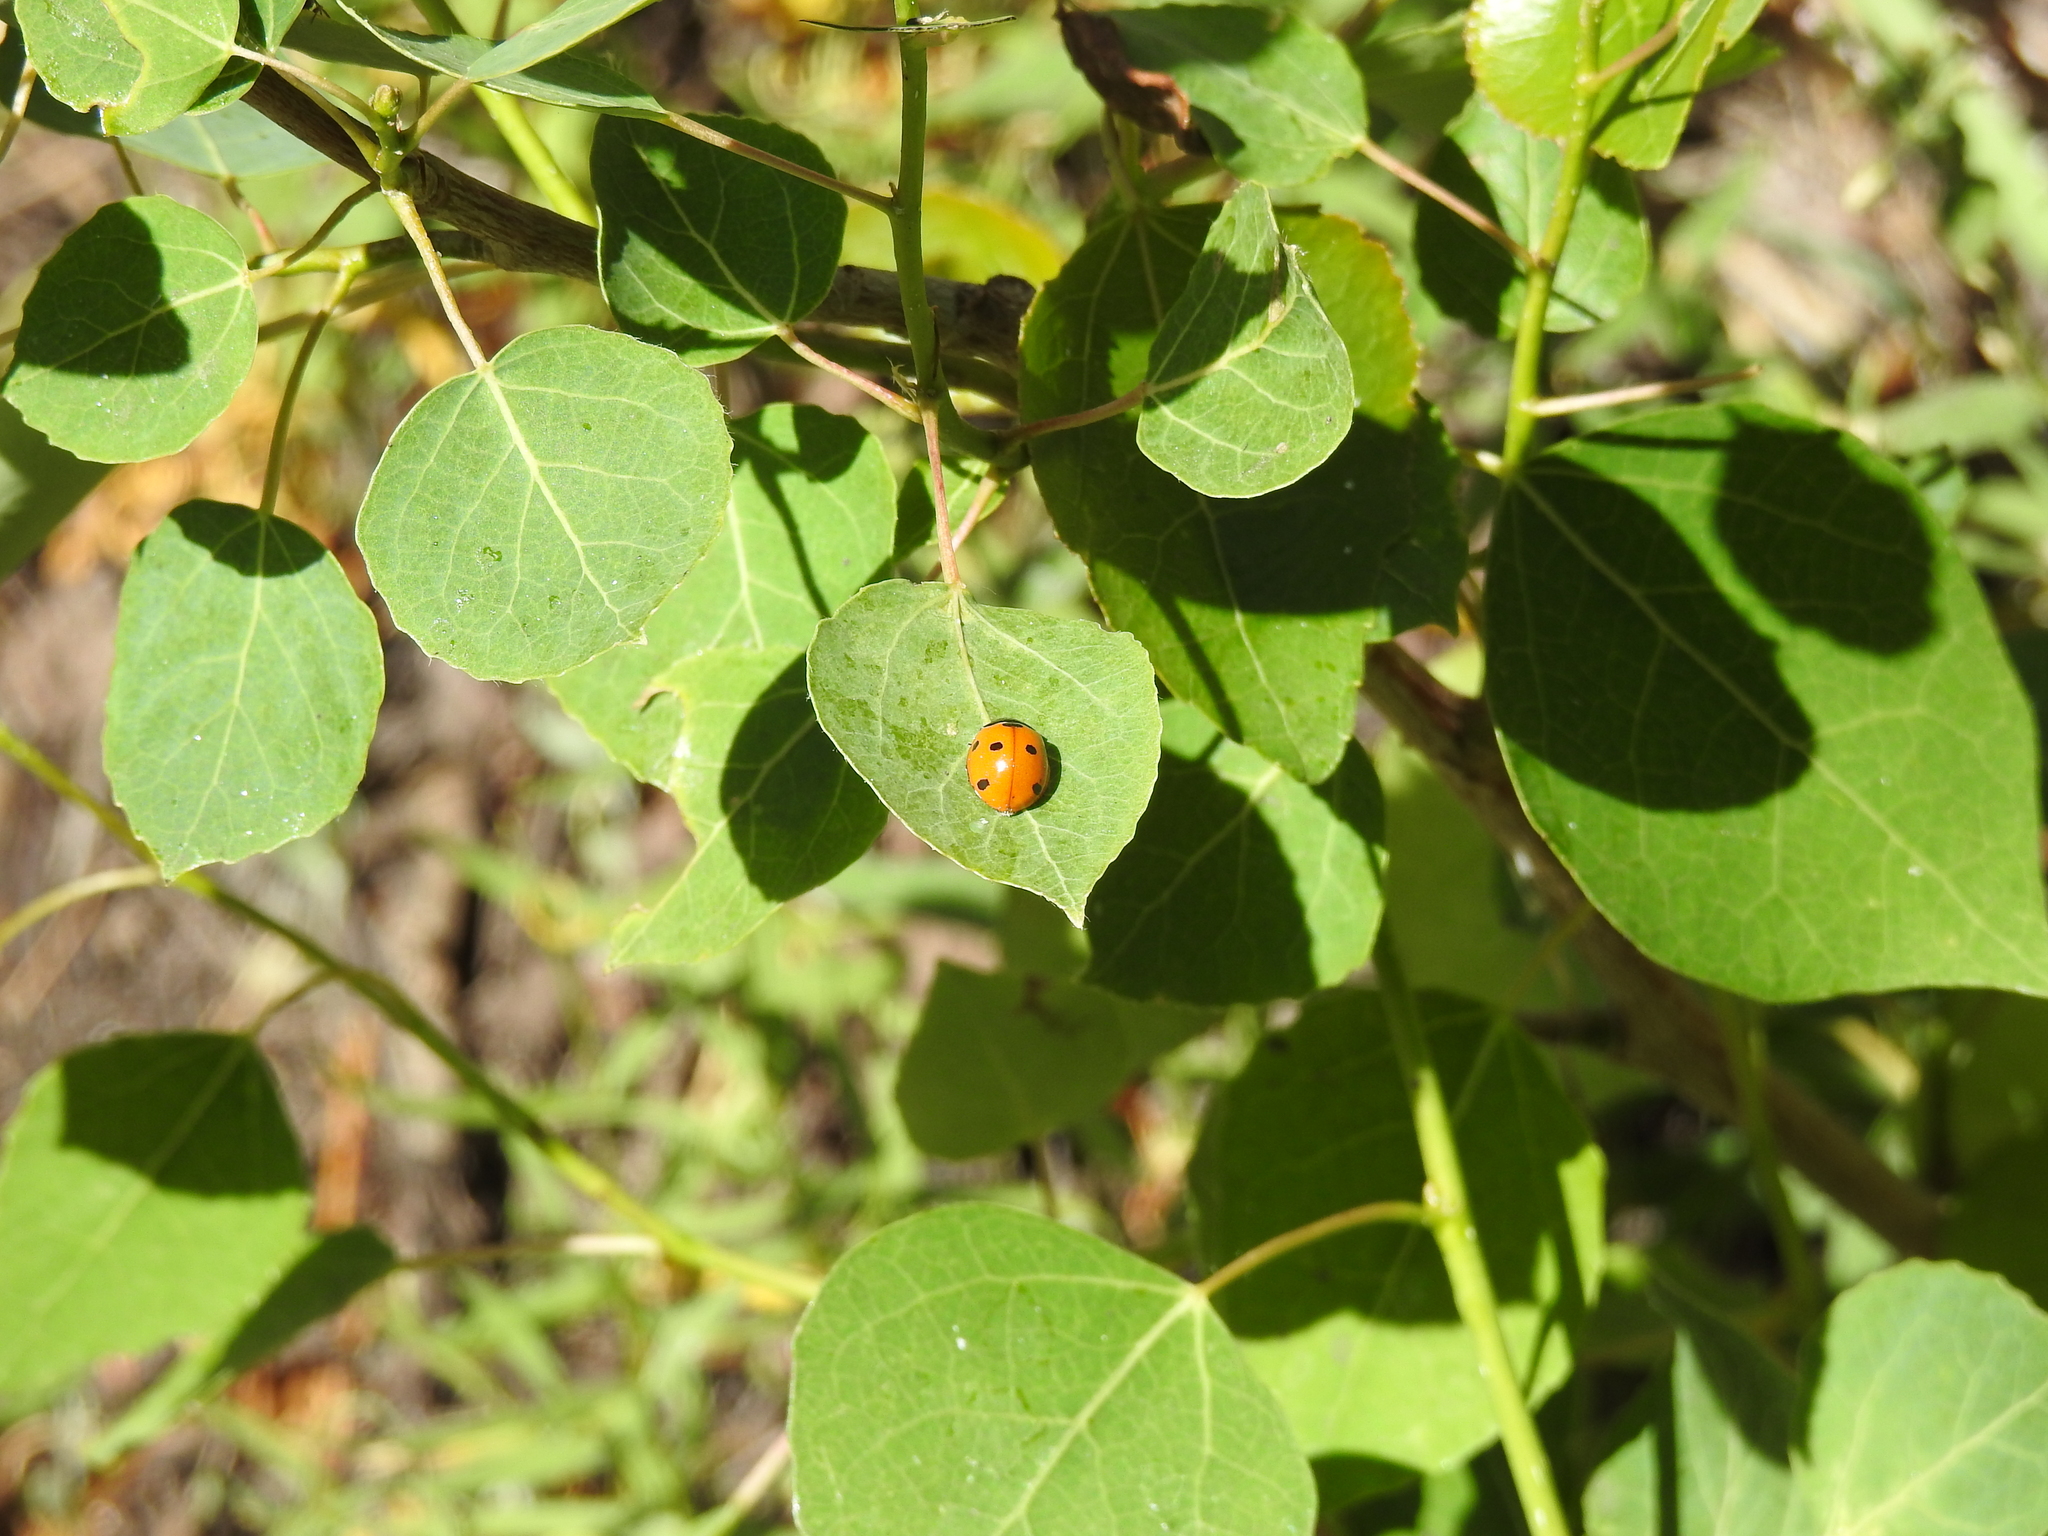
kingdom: Animalia
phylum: Arthropoda
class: Insecta
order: Coleoptera
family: Coccinellidae
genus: Coccinella
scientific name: Coccinella septempunctata
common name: Sevenspotted lady beetle
